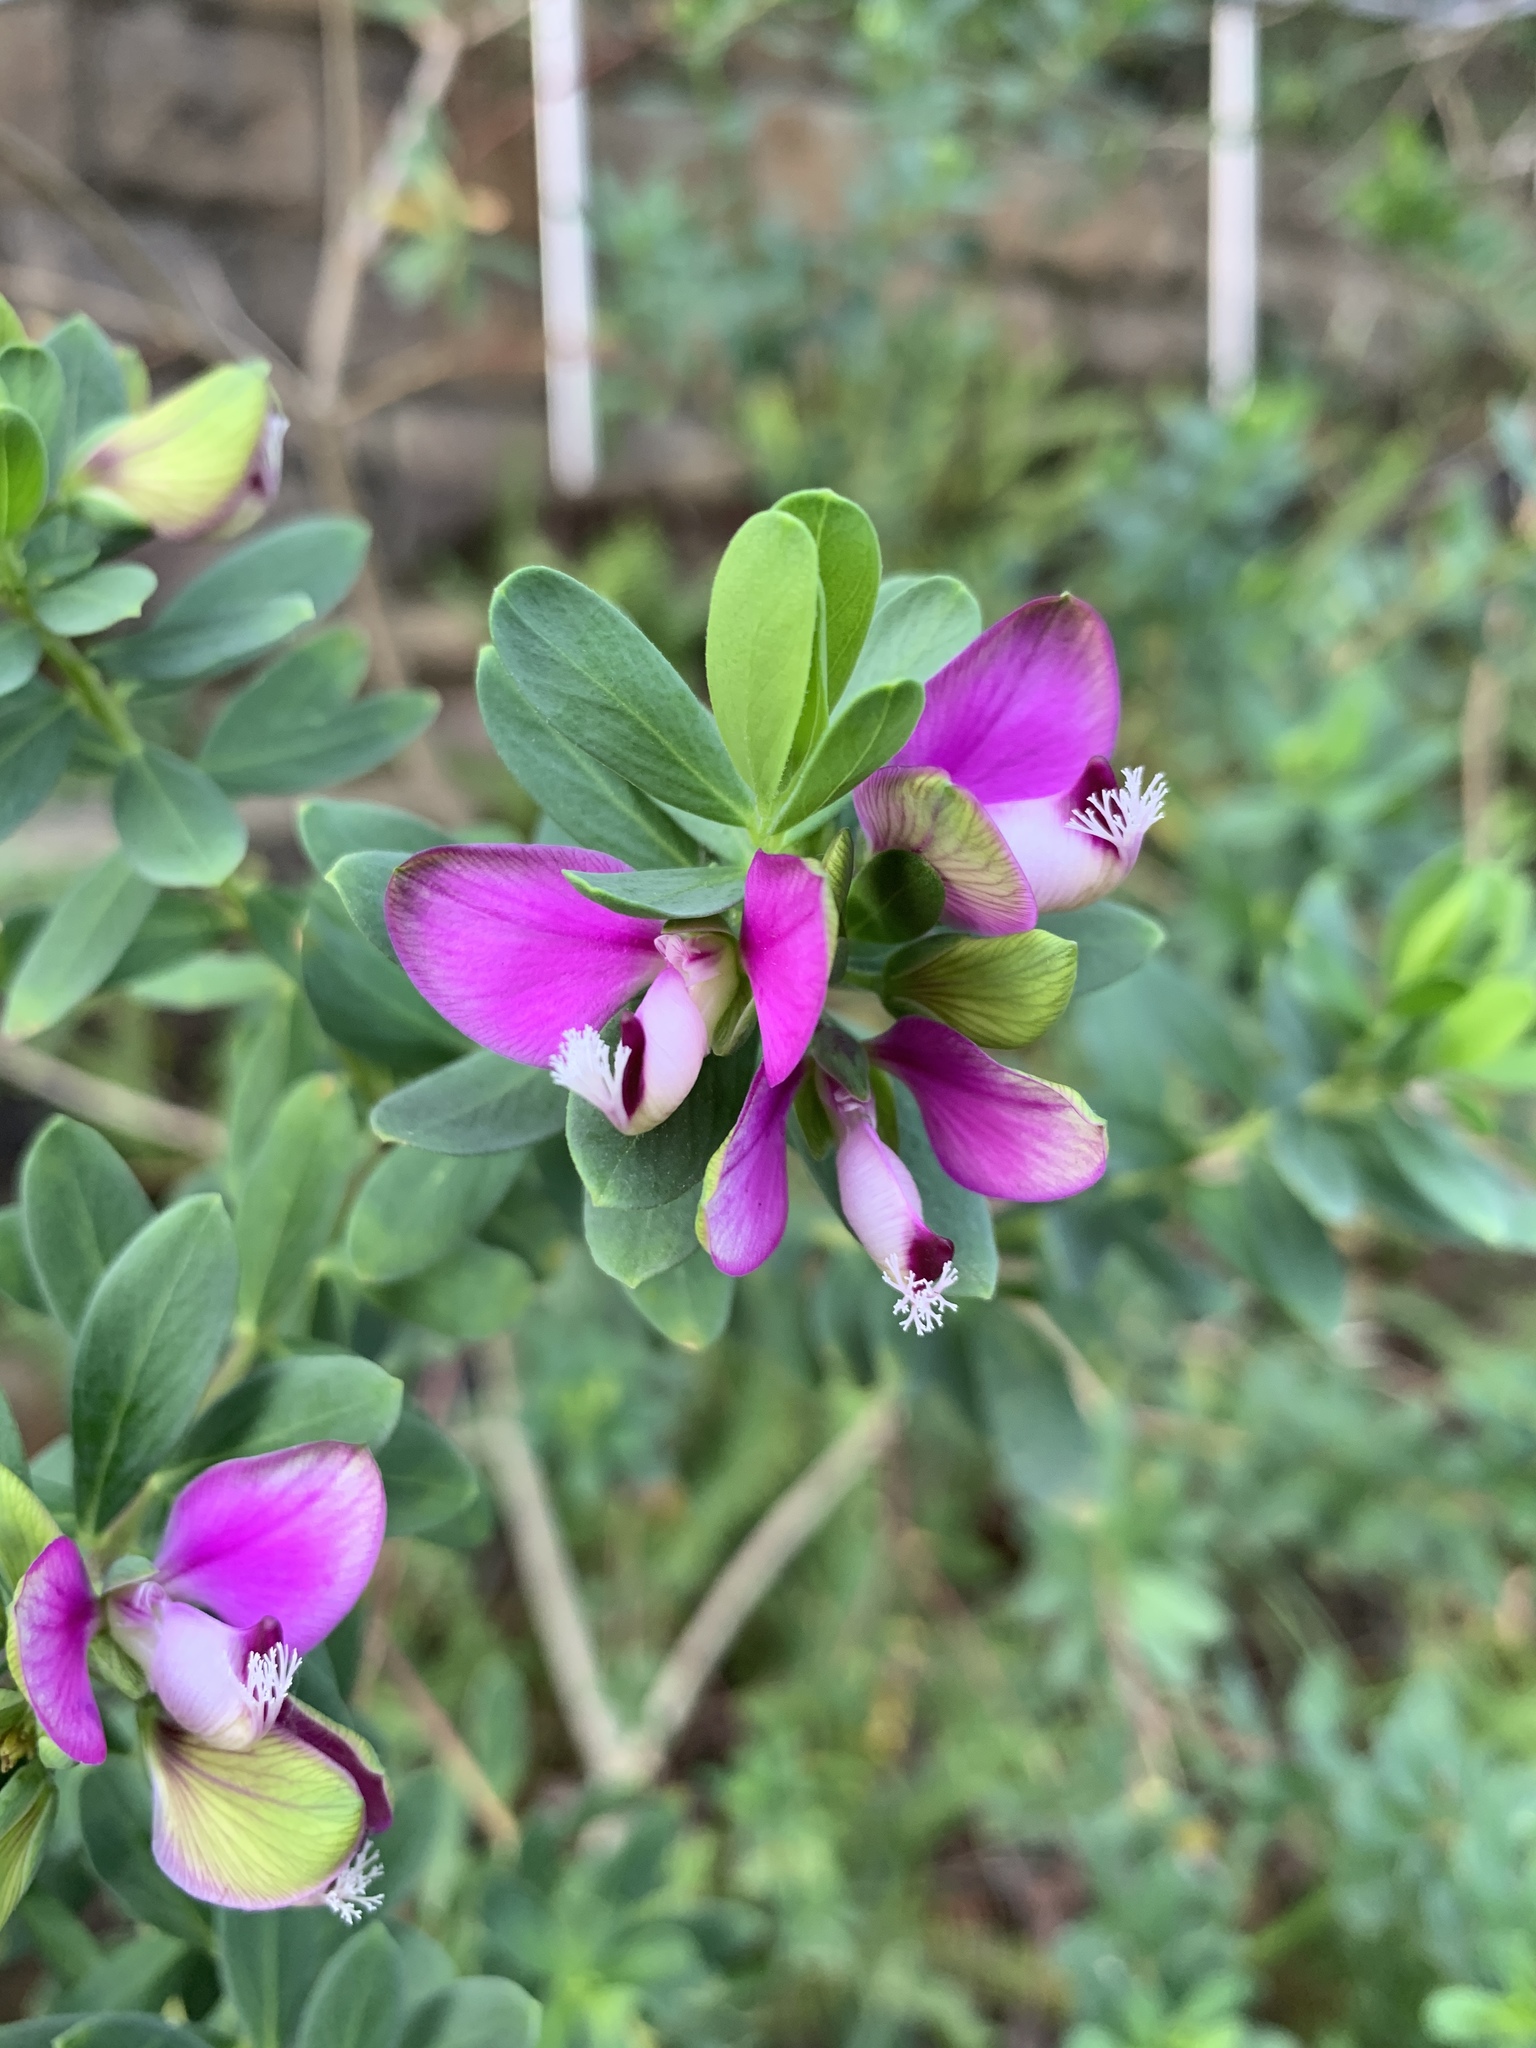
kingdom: Plantae
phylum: Tracheophyta
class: Magnoliopsida
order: Fabales
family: Polygalaceae
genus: Polygala
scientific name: Polygala myrtifolia
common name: Myrtle-leaf milkwort
